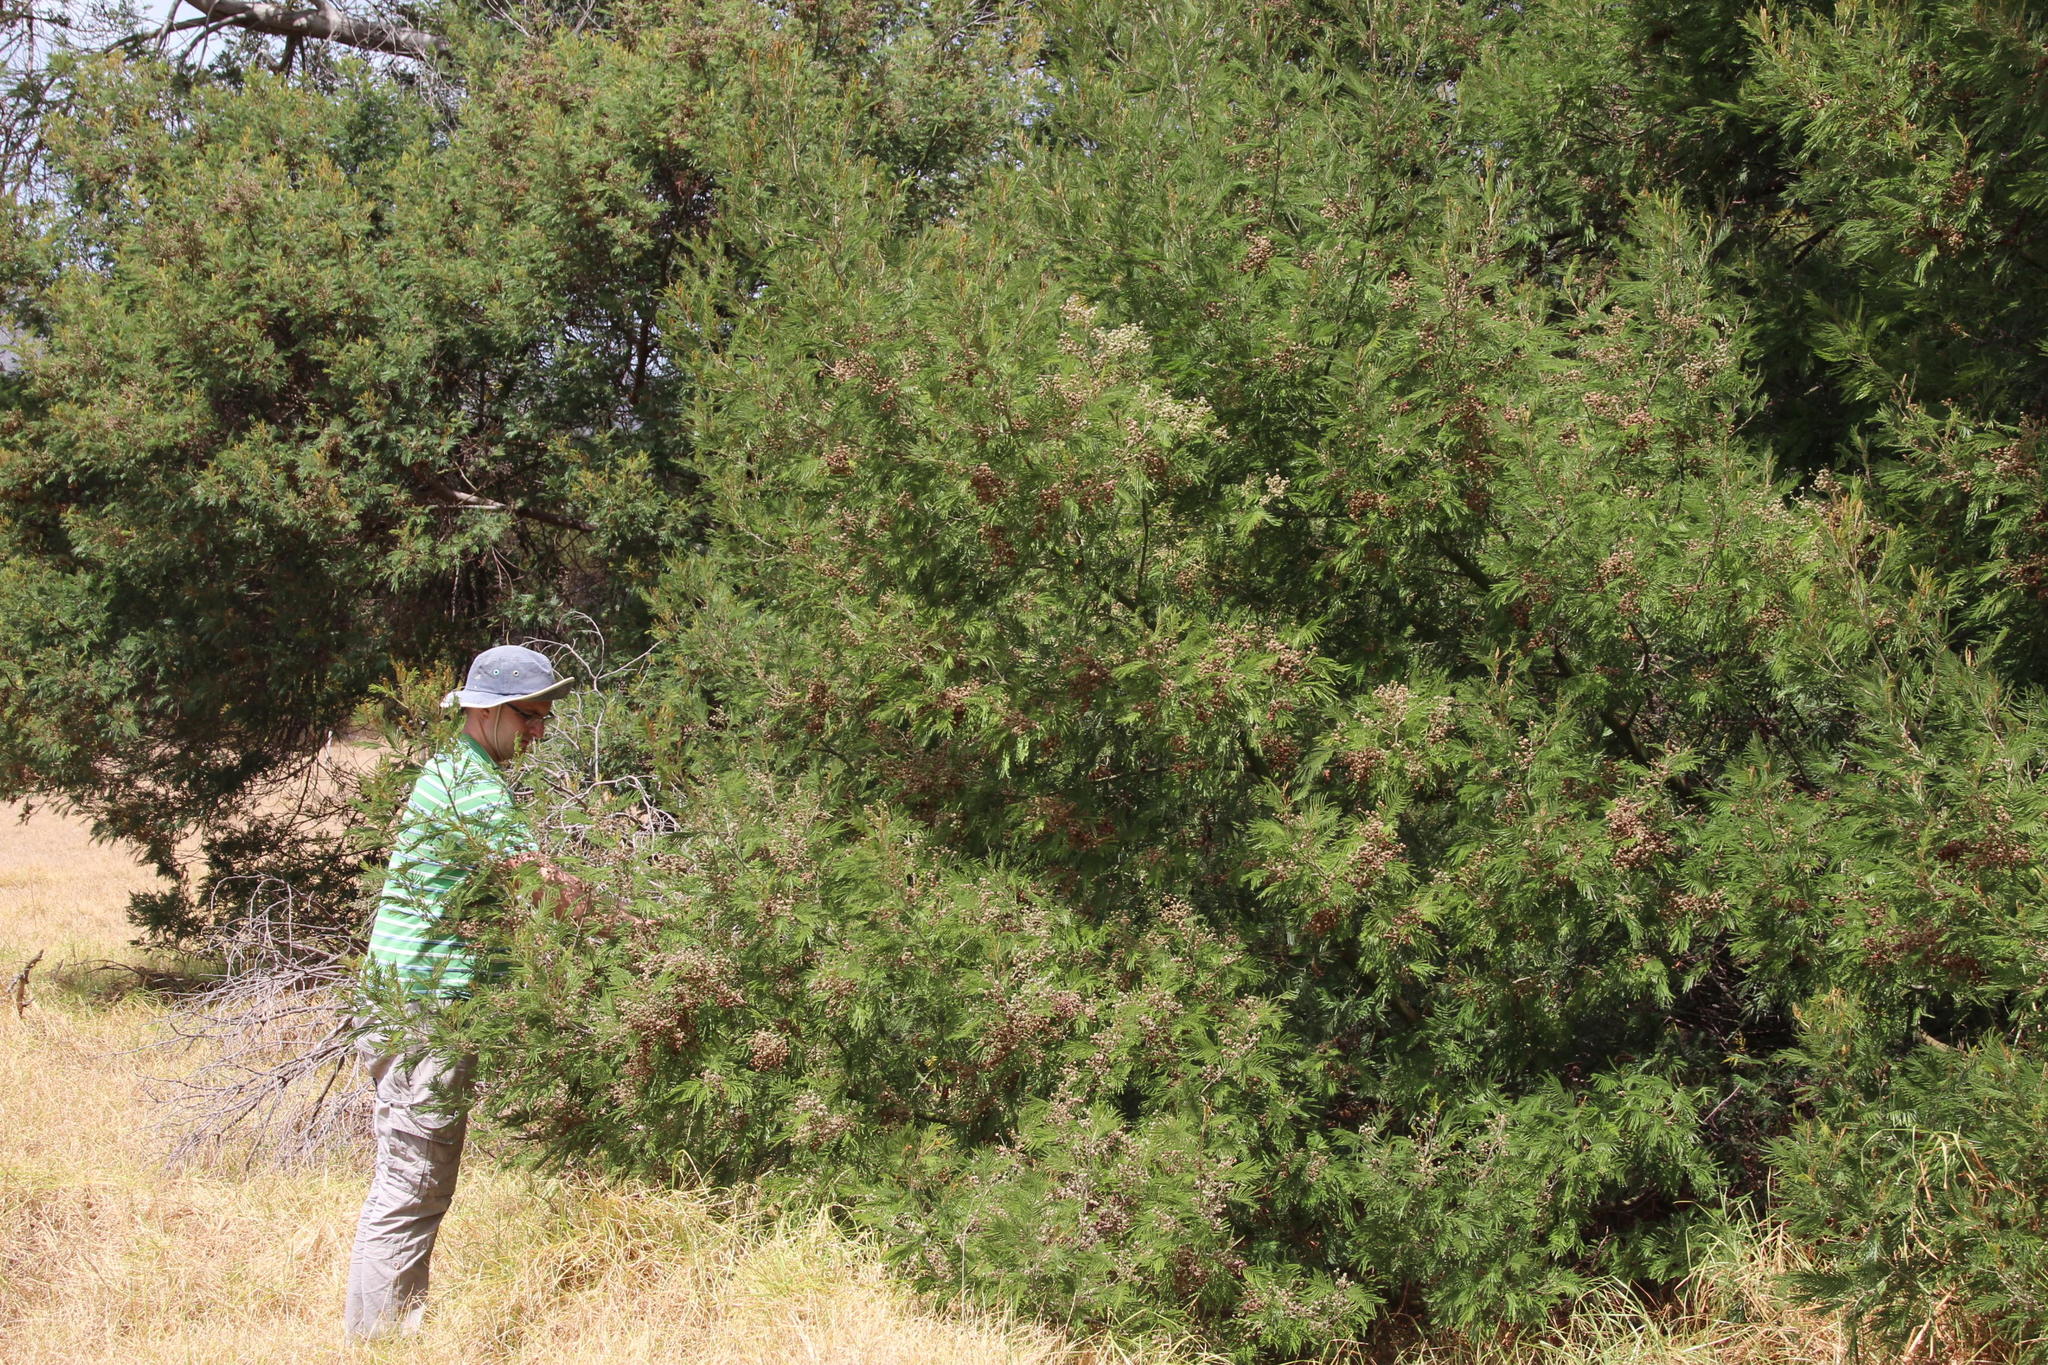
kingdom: Plantae
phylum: Tracheophyta
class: Magnoliopsida
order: Fabales
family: Fabaceae
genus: Acacia
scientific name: Acacia mearnsii
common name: Black wattle
